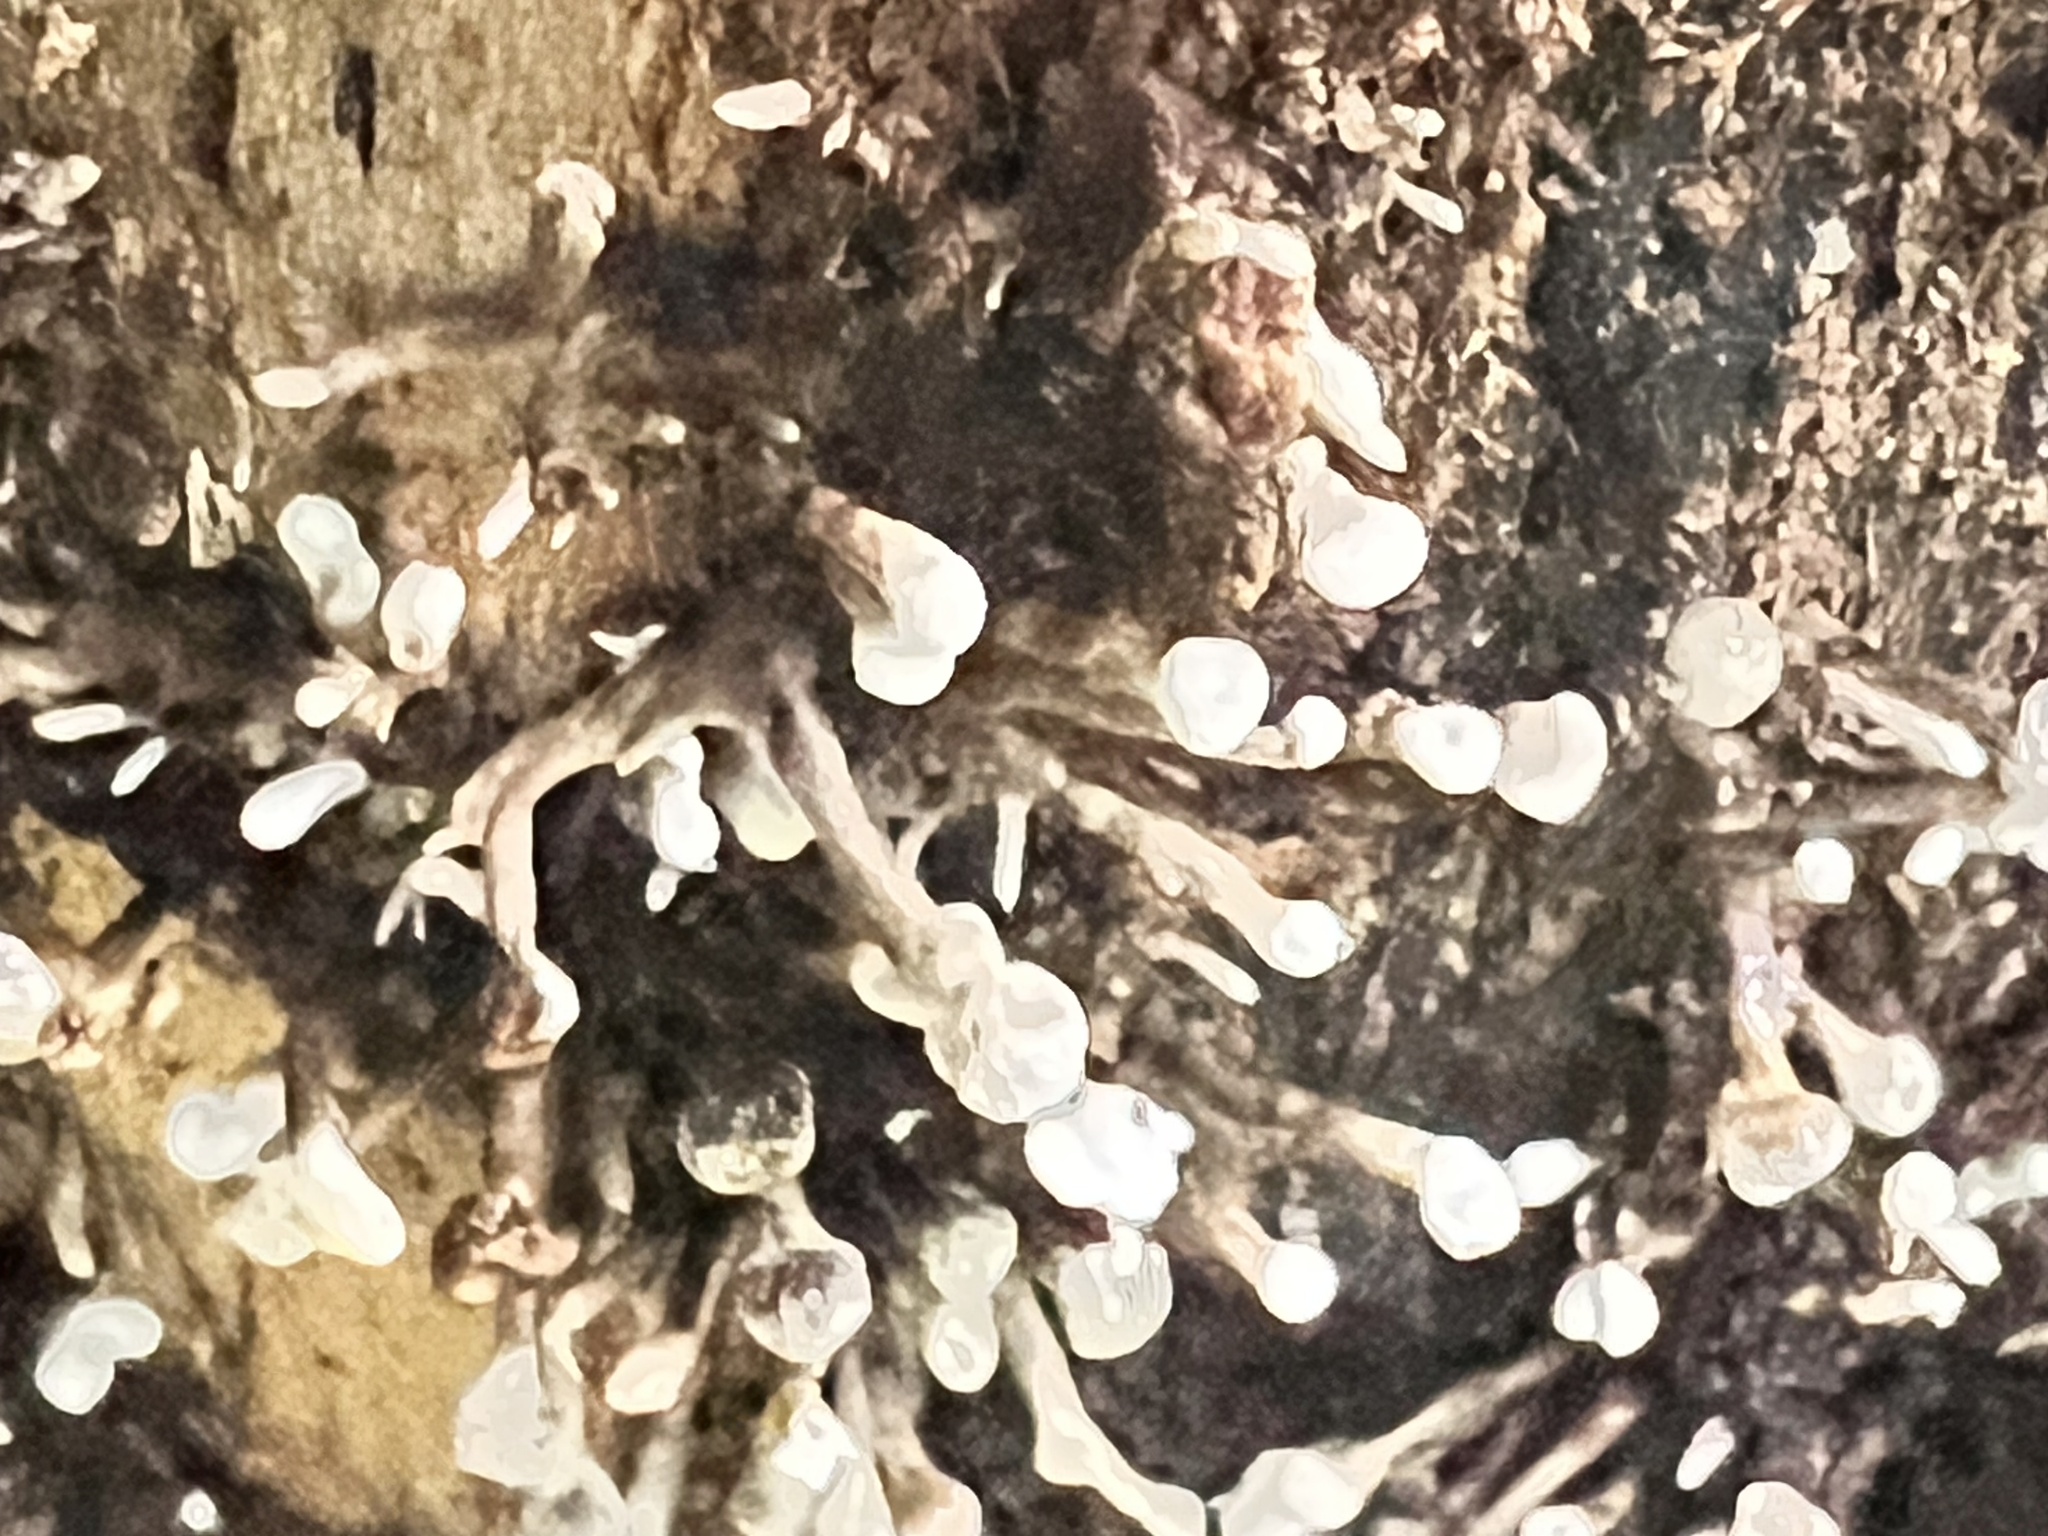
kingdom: Fungi
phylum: Basidiomycota
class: Atractiellomycetes
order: Atractiellales
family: Phleogenaceae
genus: Phleogena
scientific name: Phleogena faginea
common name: Fenugreek stalkball
